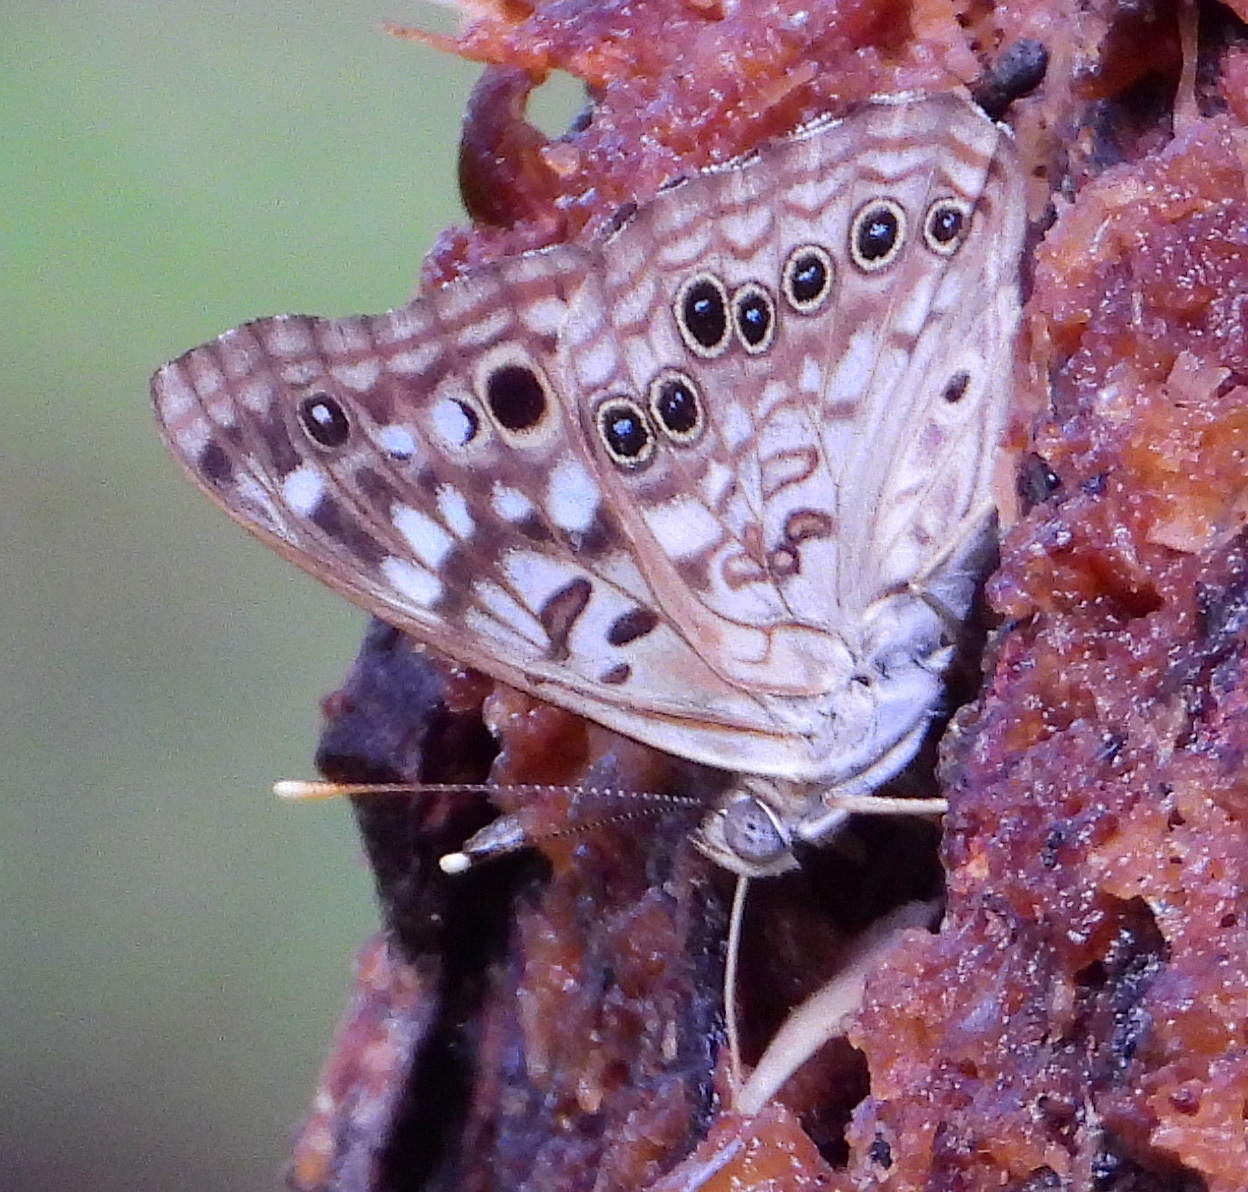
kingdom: Animalia
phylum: Arthropoda
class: Insecta
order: Lepidoptera
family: Nymphalidae
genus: Asterocampa
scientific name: Asterocampa celtis
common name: Hackberry emperor
